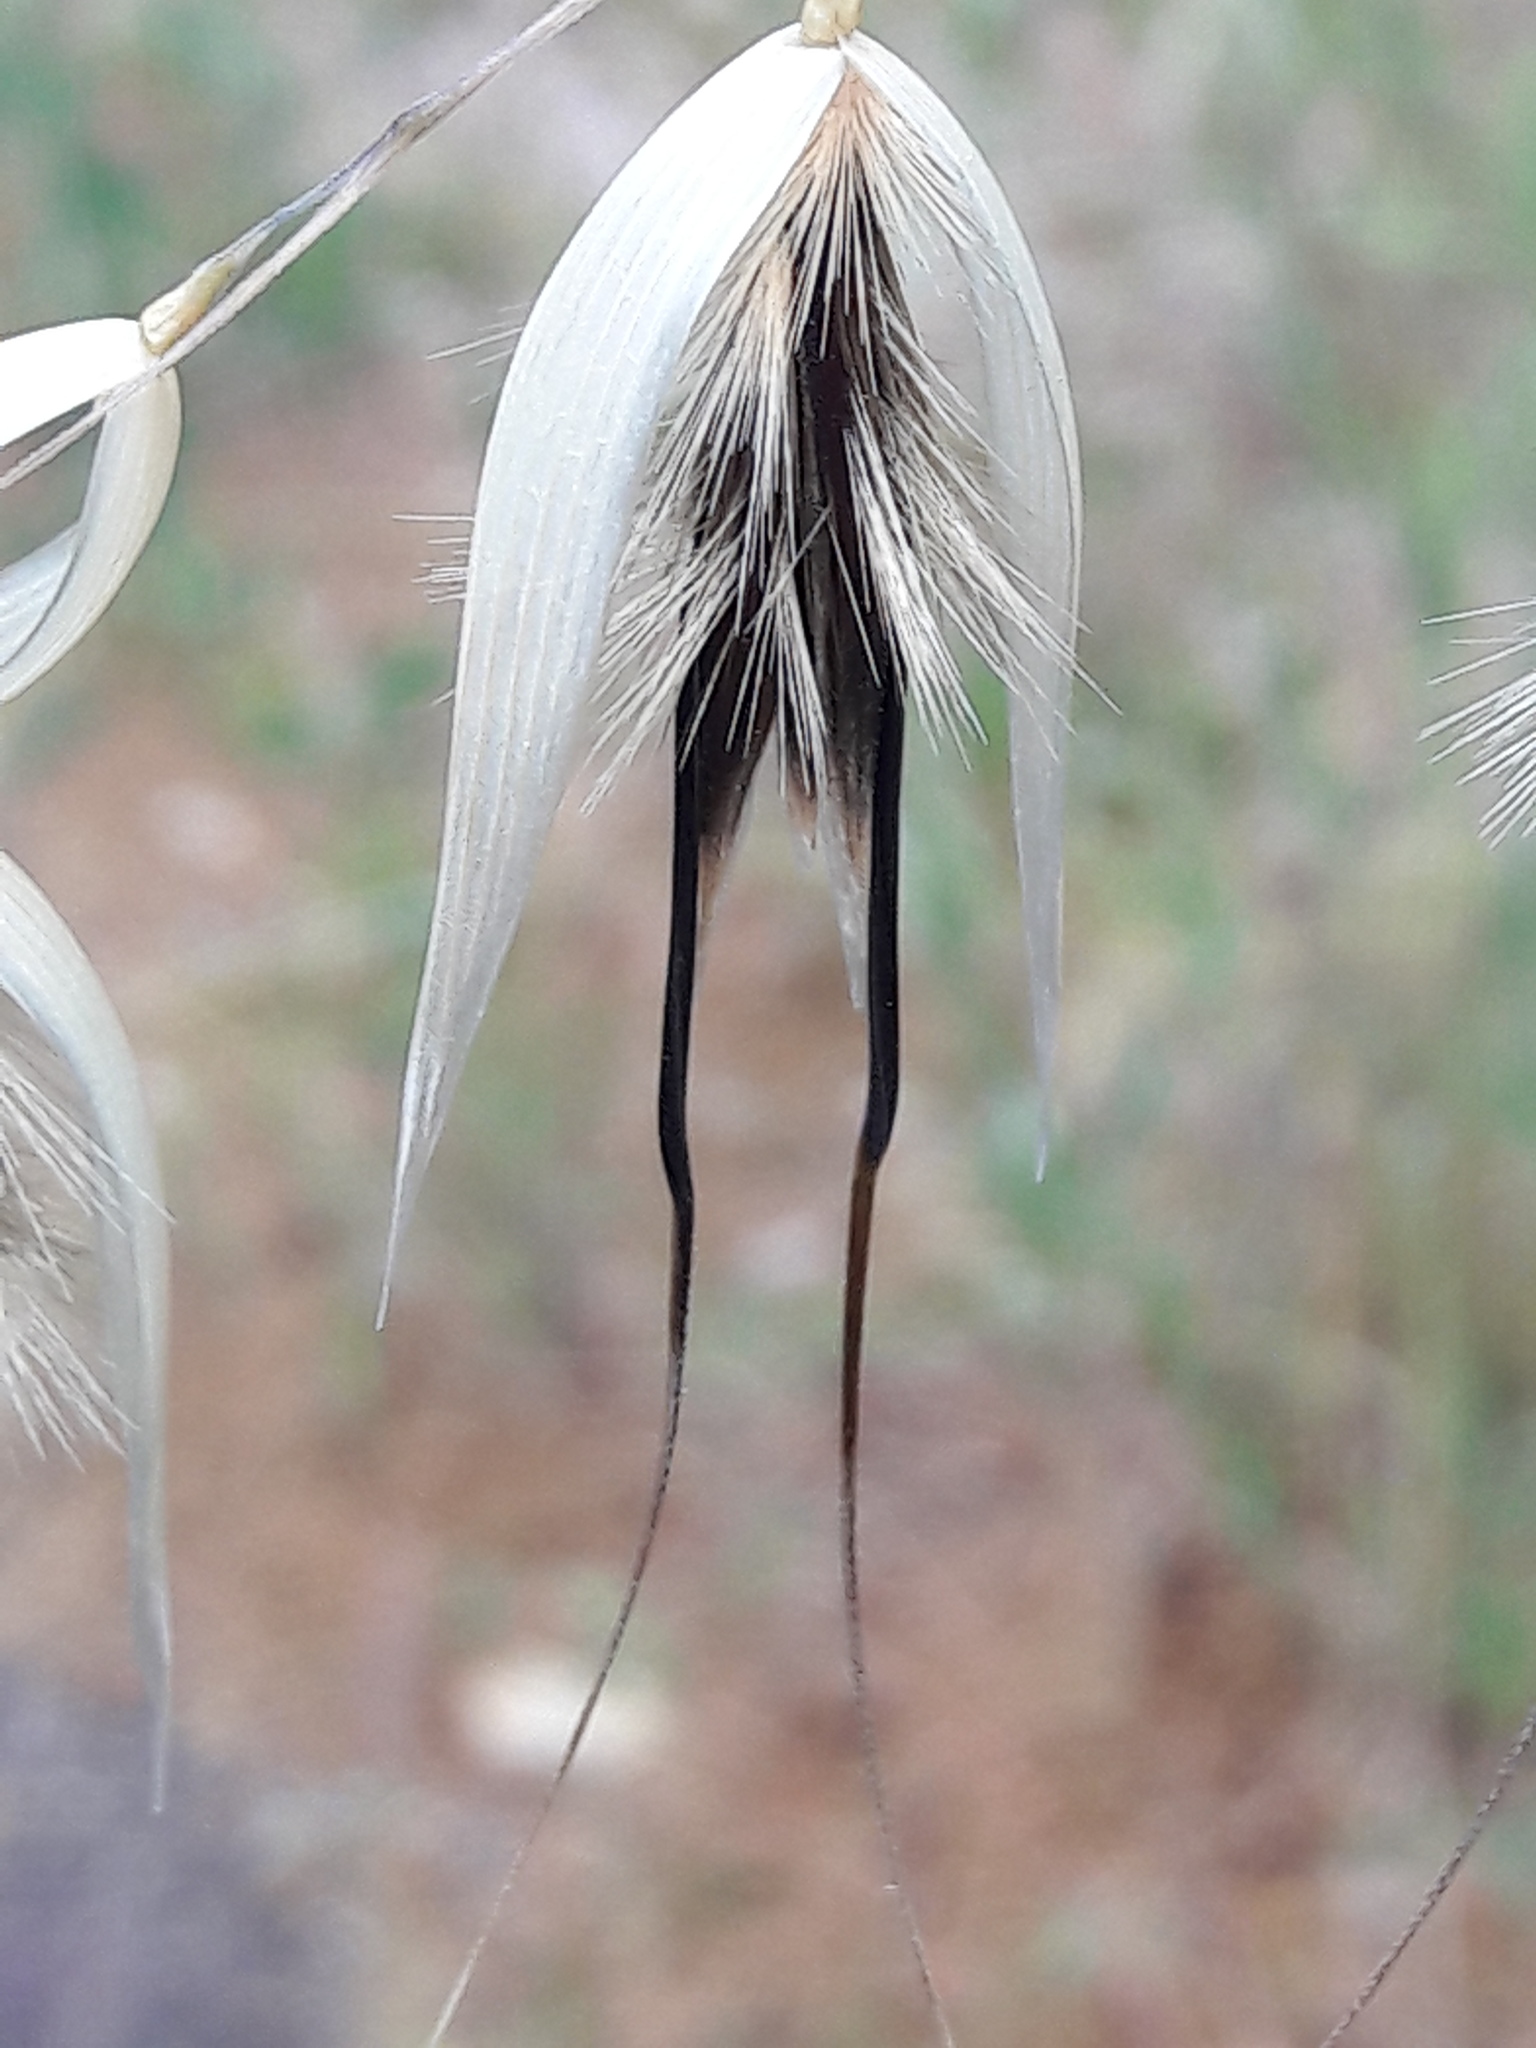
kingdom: Plantae
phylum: Tracheophyta
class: Liliopsida
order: Poales
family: Poaceae
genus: Avena
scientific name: Avena barbata
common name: Slender oat
